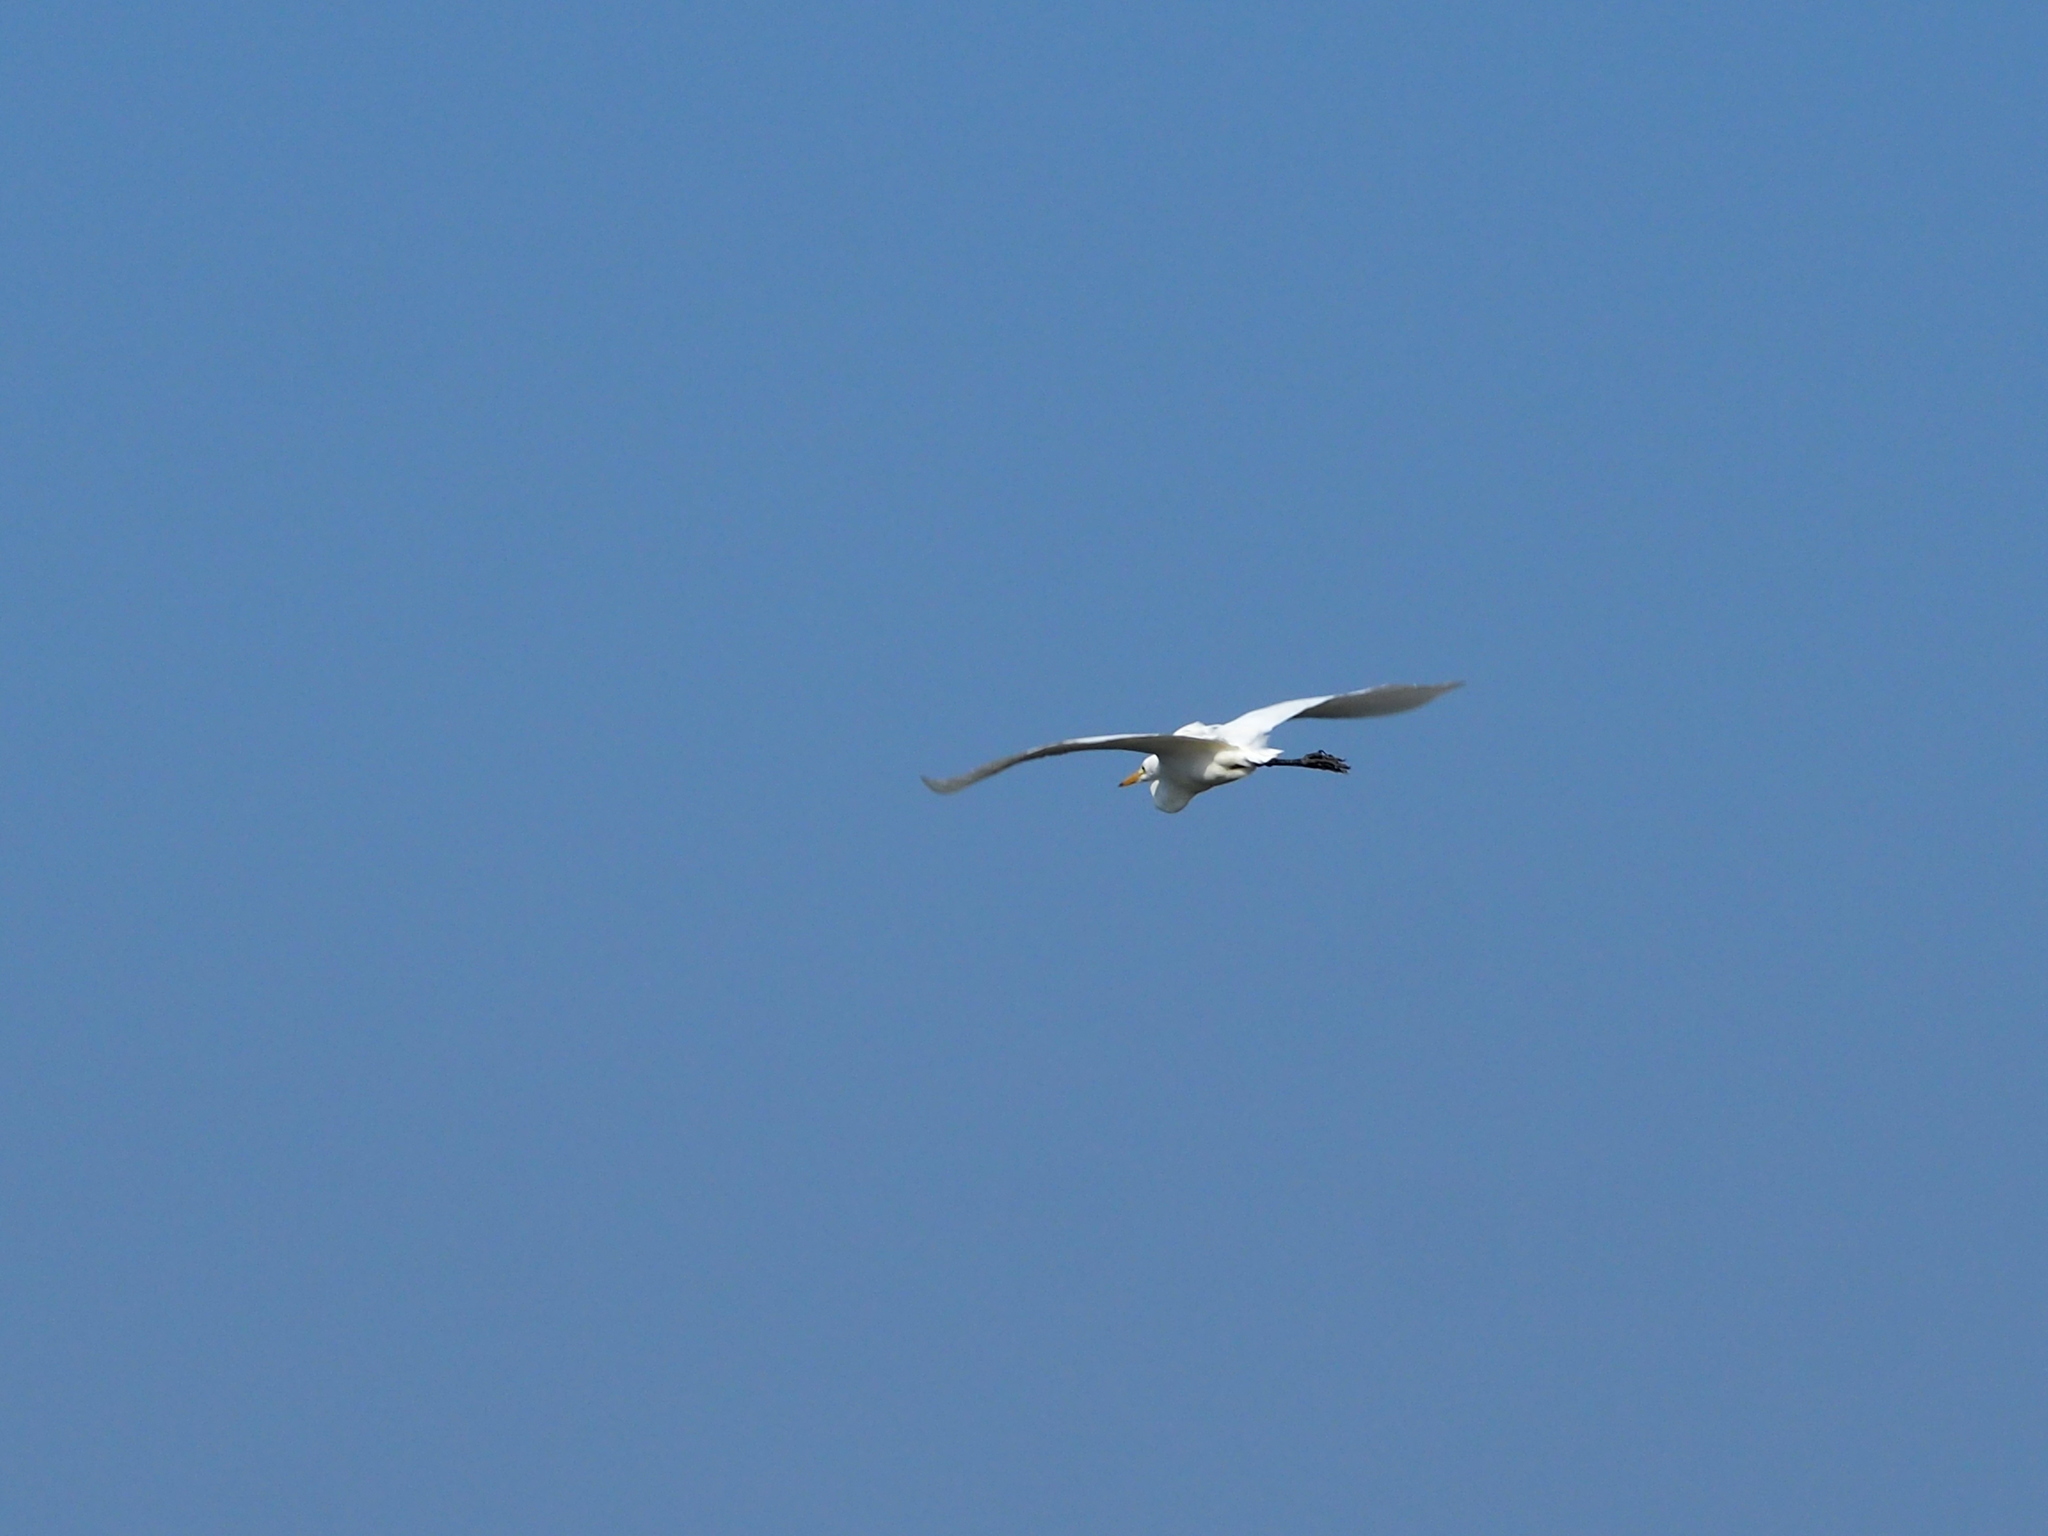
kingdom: Animalia
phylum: Chordata
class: Aves
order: Pelecaniformes
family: Ardeidae
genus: Egretta
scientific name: Egretta intermedia
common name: Intermediate egret
